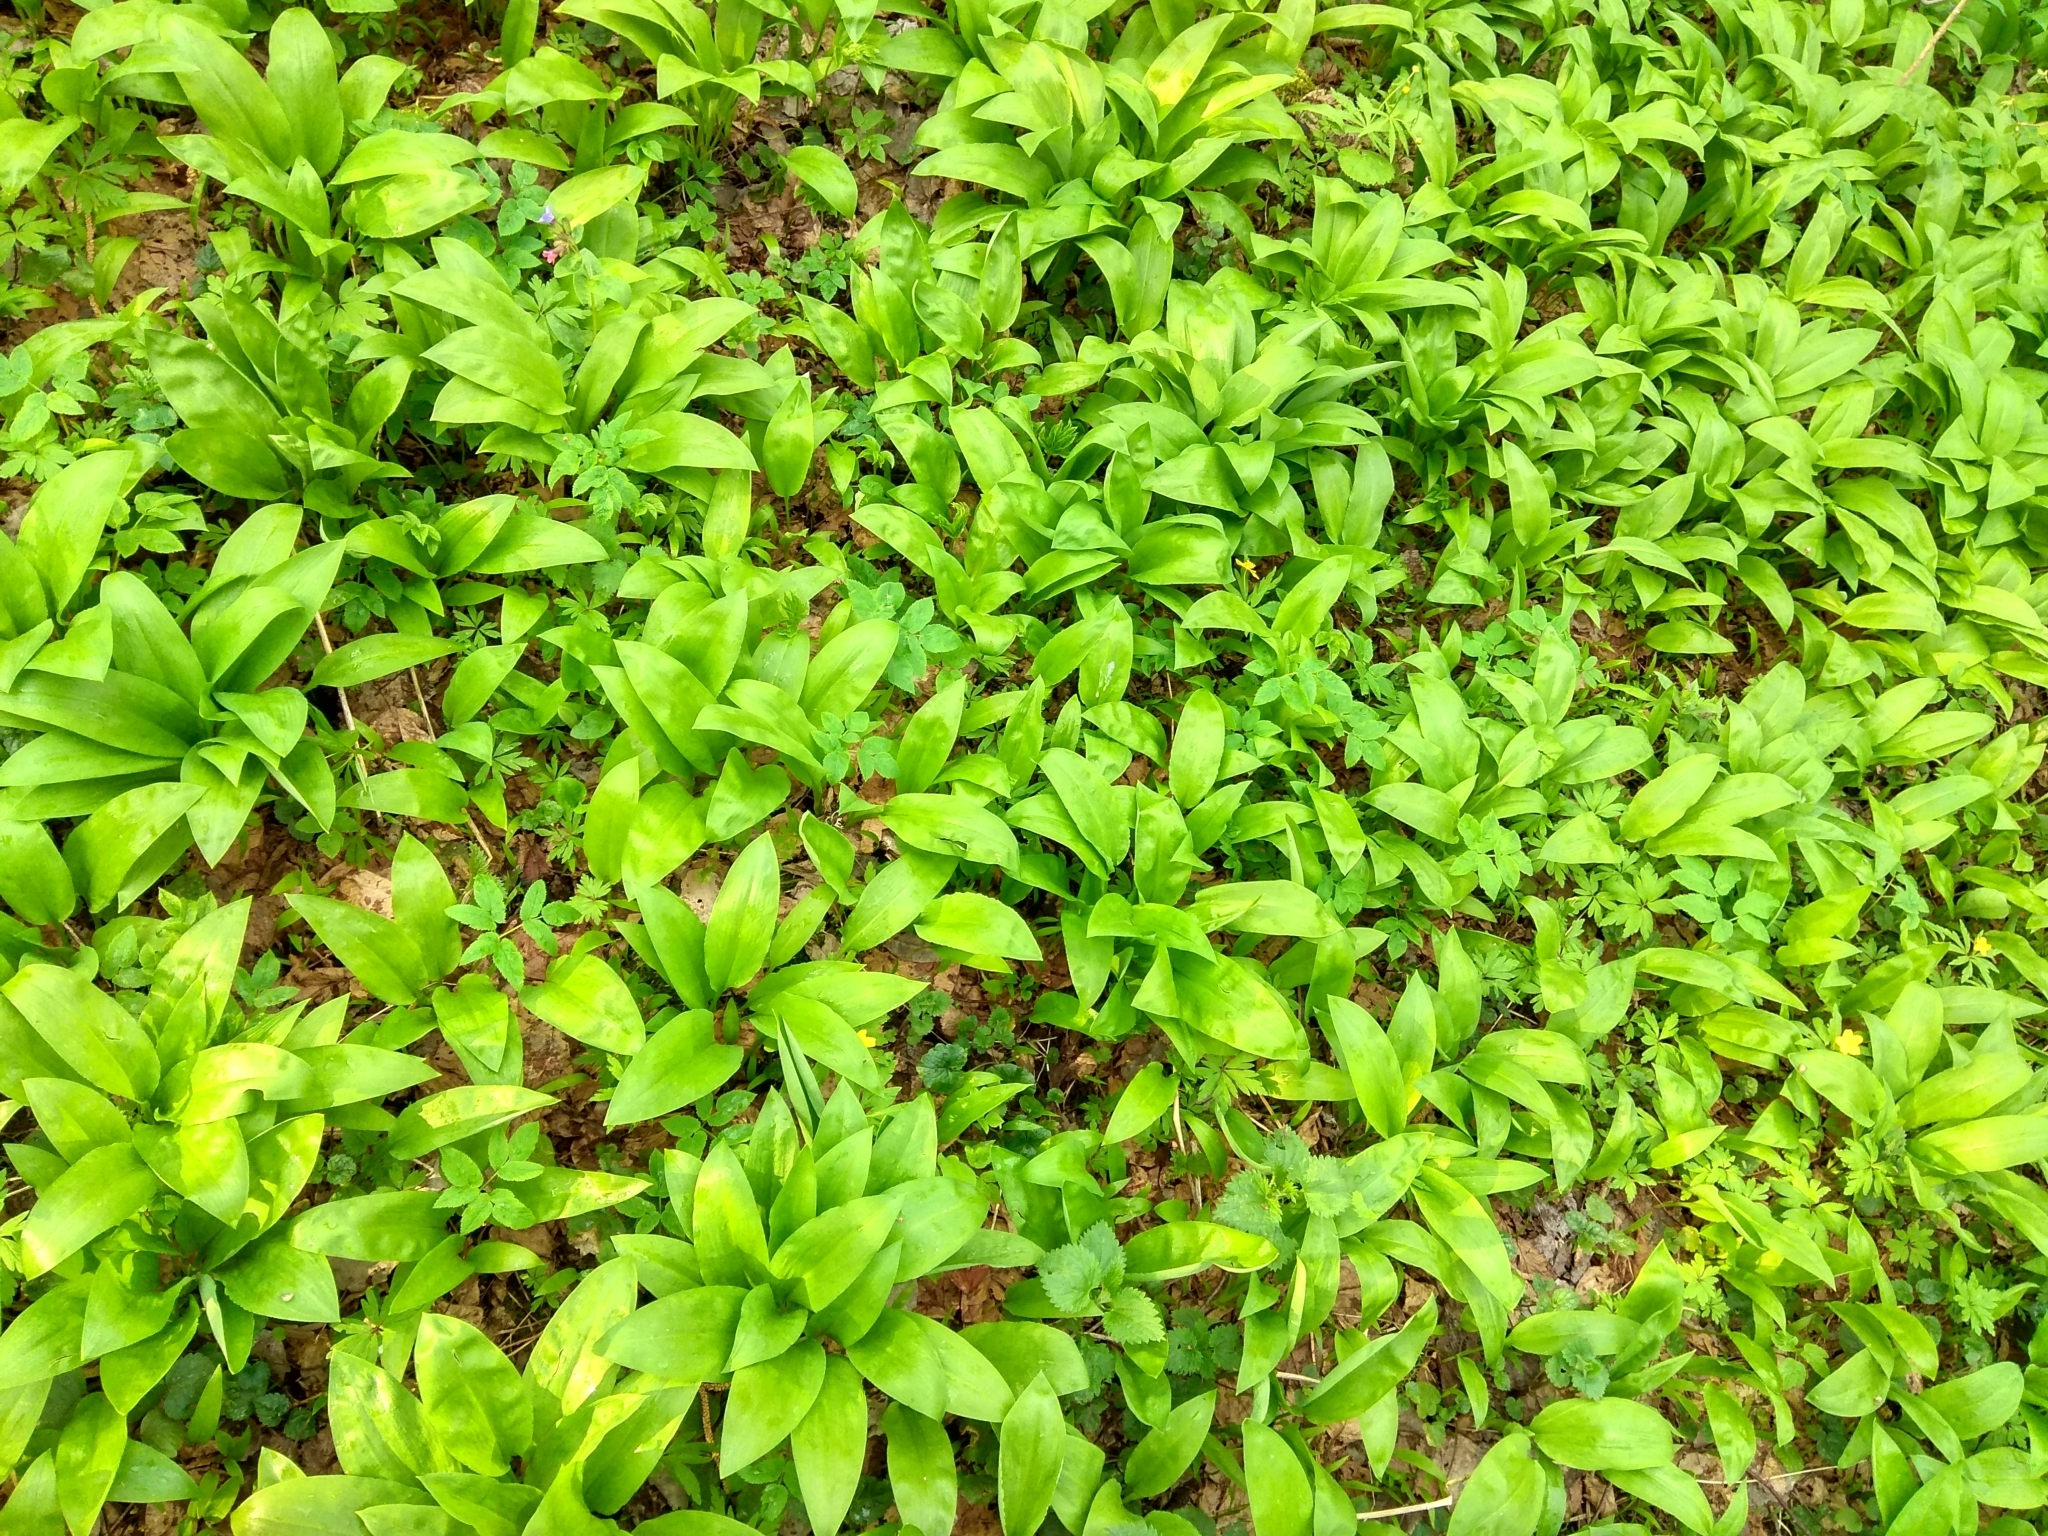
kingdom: Plantae
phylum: Tracheophyta
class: Liliopsida
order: Asparagales
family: Amaryllidaceae
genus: Allium
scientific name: Allium ursinum
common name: Ramsons
